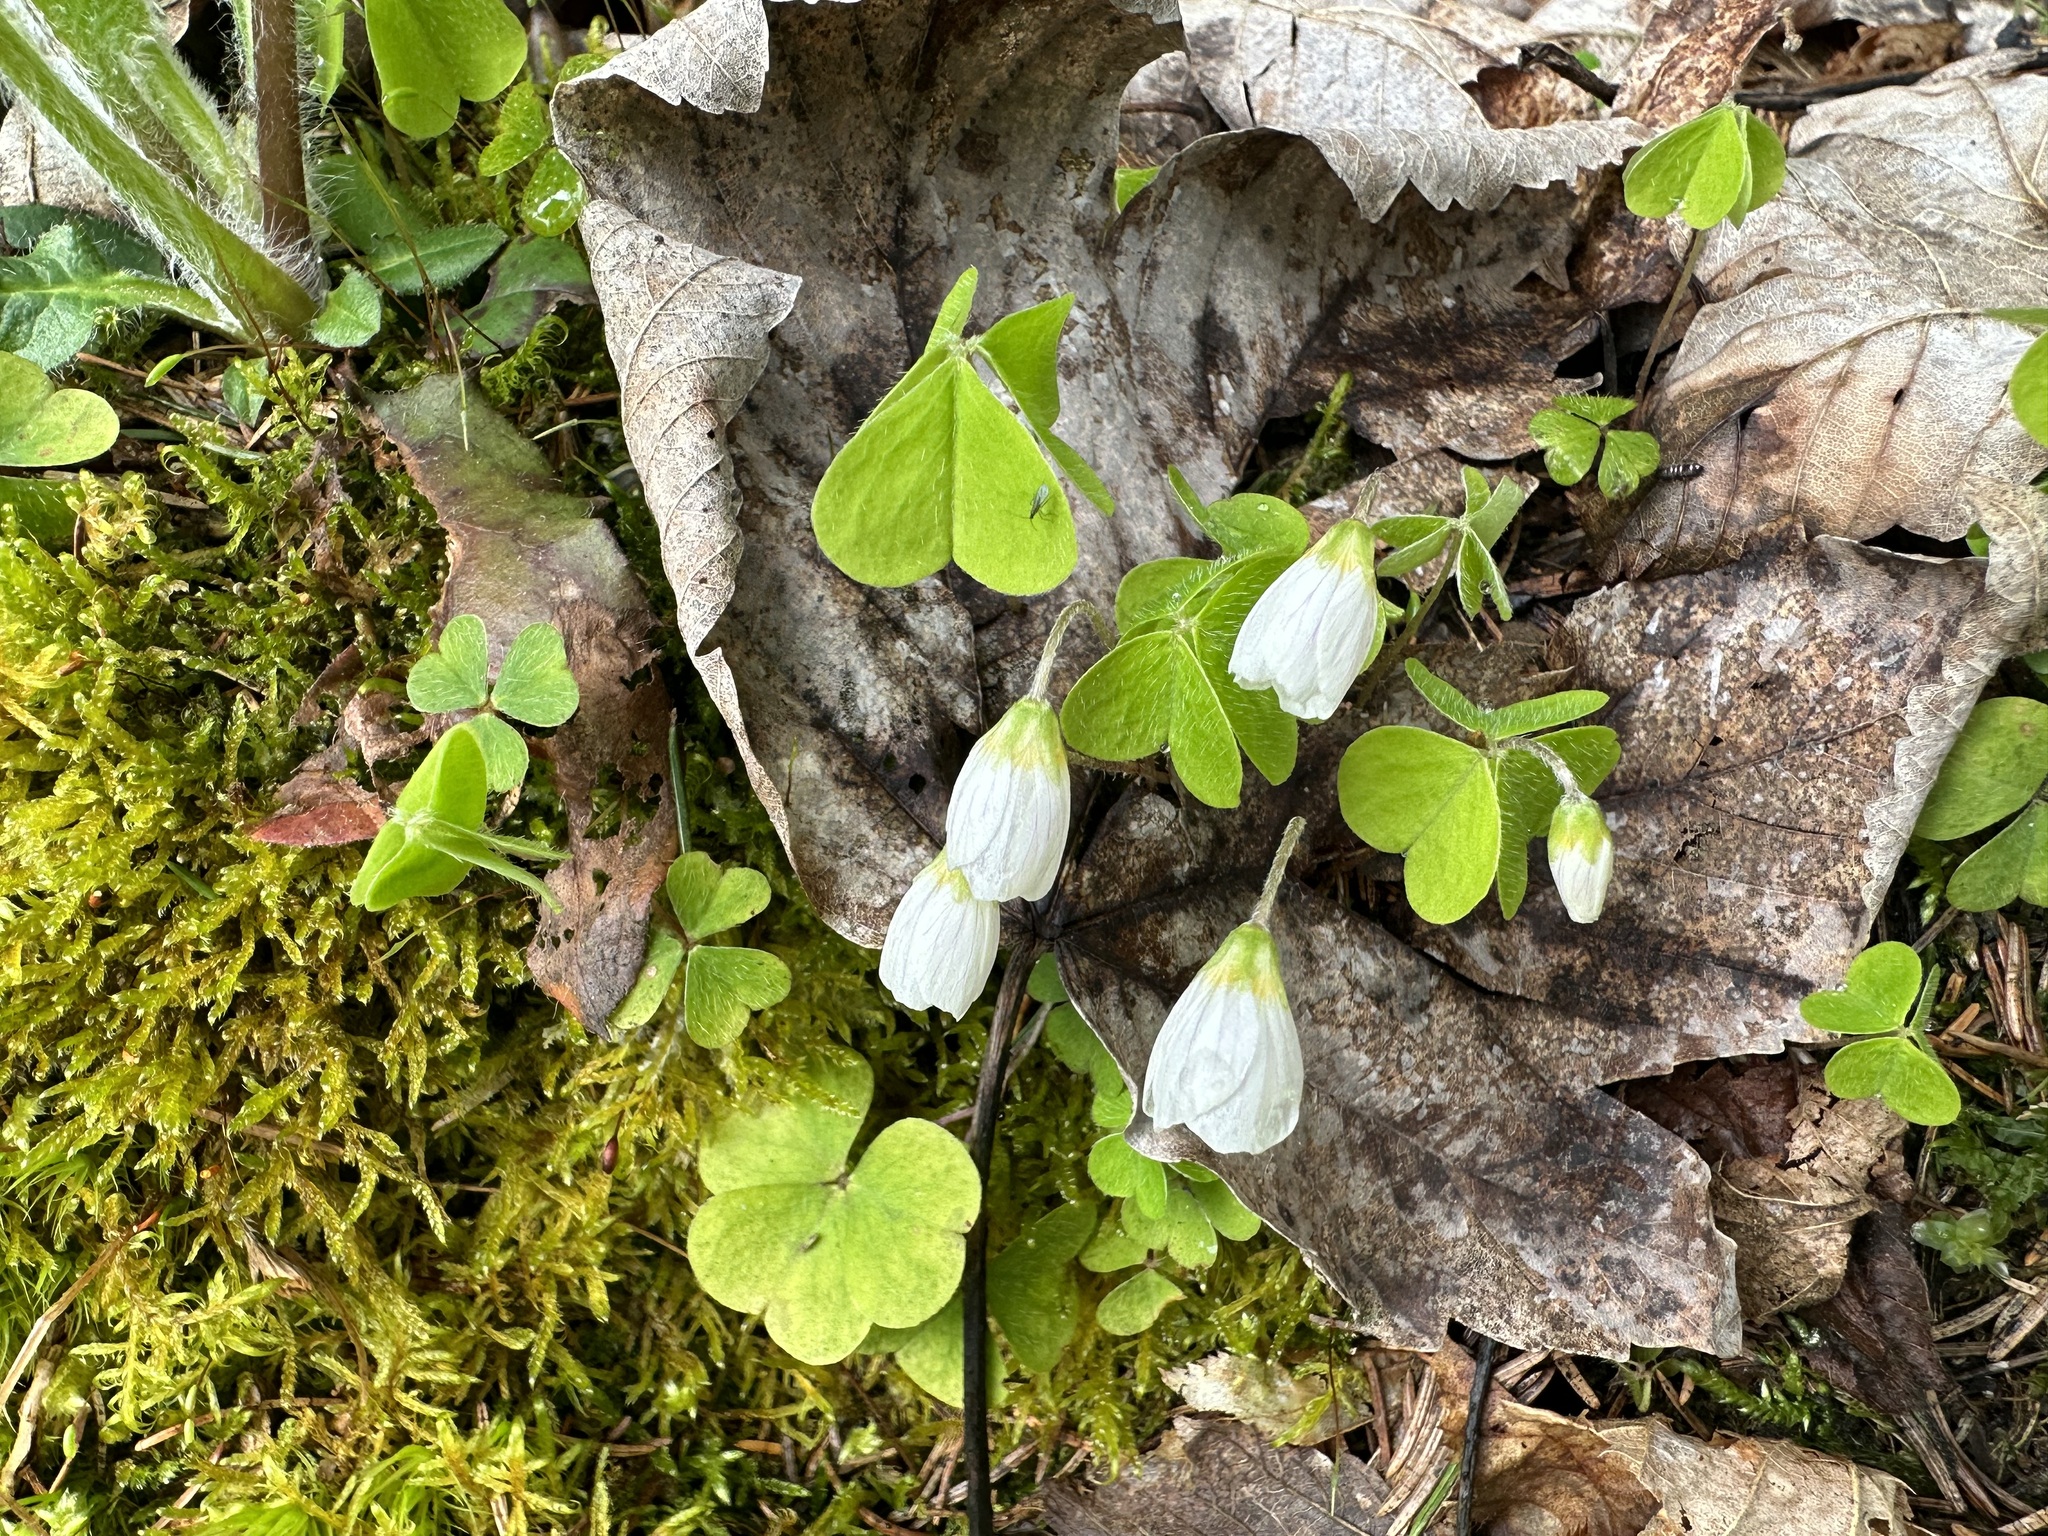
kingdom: Plantae
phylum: Tracheophyta
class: Magnoliopsida
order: Oxalidales
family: Oxalidaceae
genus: Oxalis
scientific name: Oxalis acetosella
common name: Wood-sorrel
